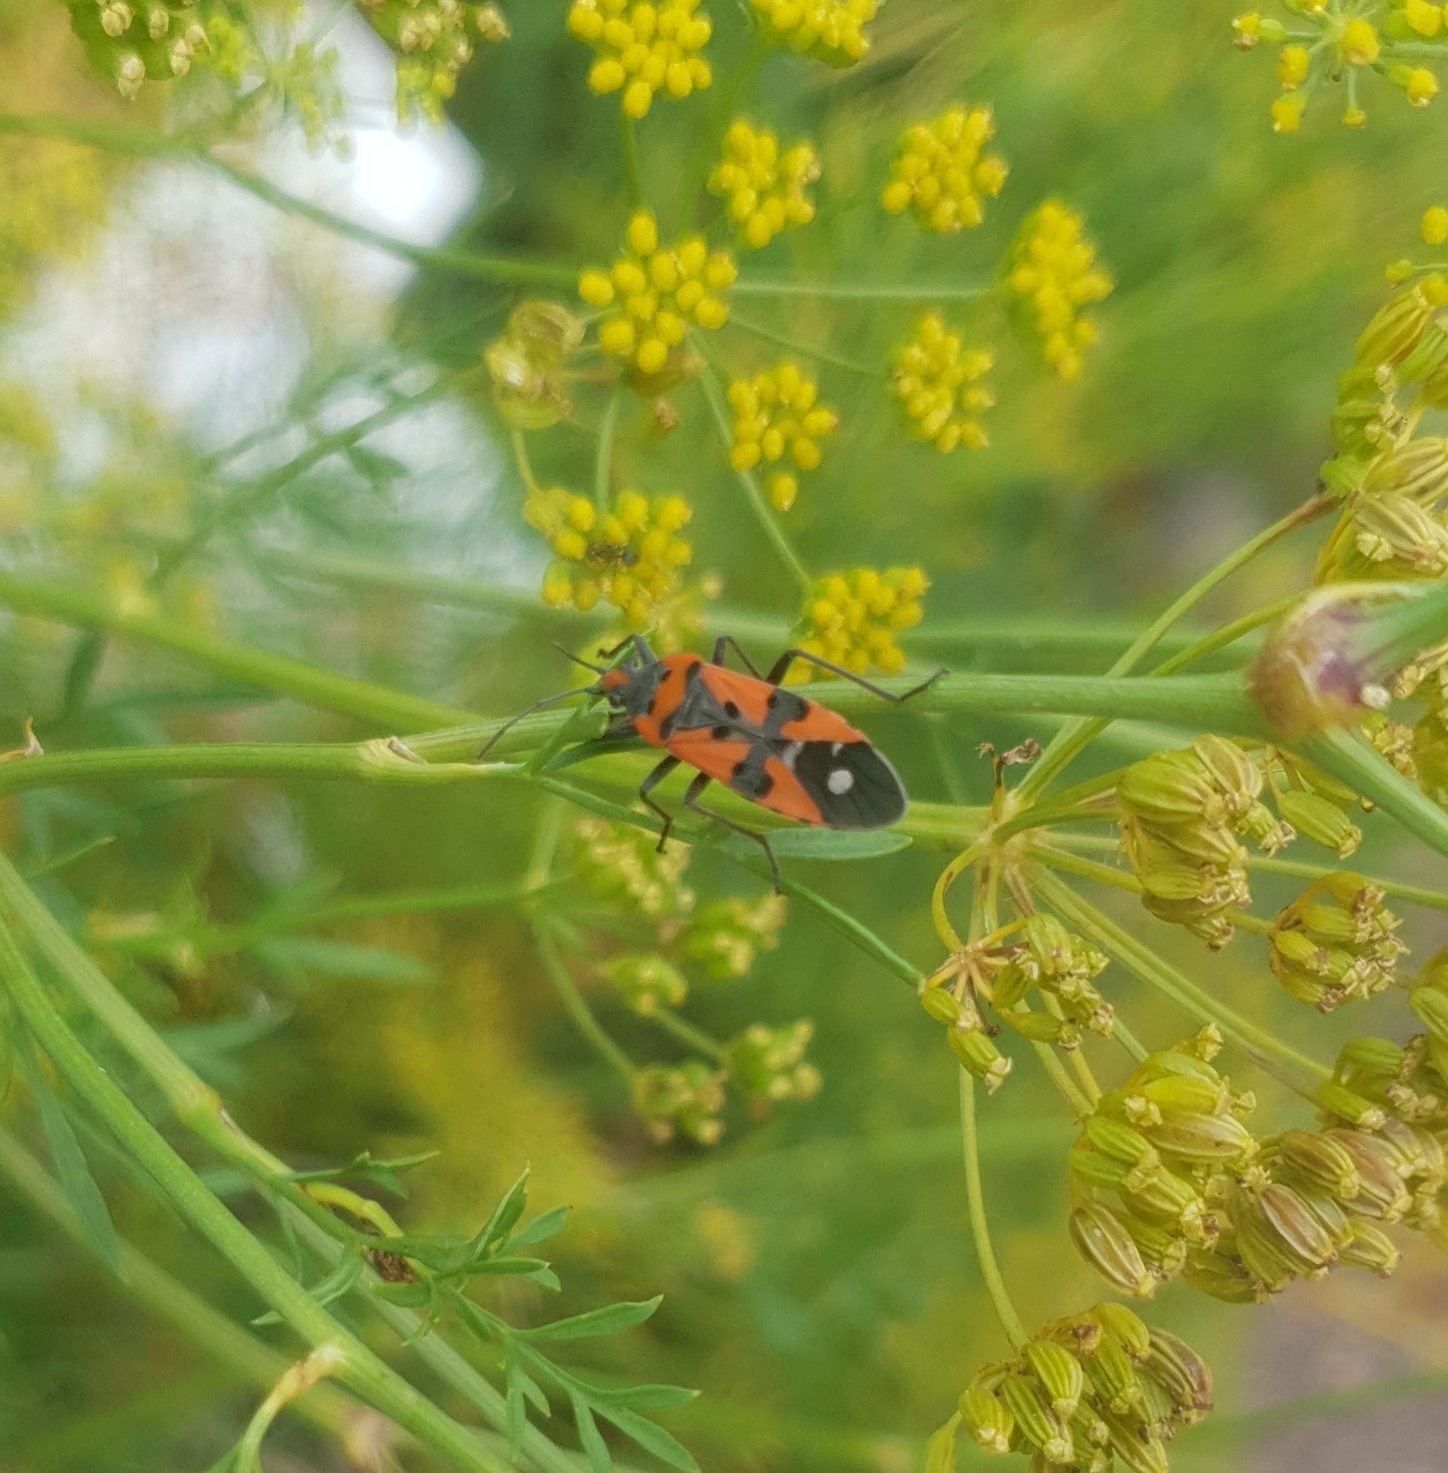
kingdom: Animalia
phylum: Arthropoda
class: Insecta
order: Hemiptera
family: Lygaeidae
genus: Lygaeus
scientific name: Lygaeus equestris
